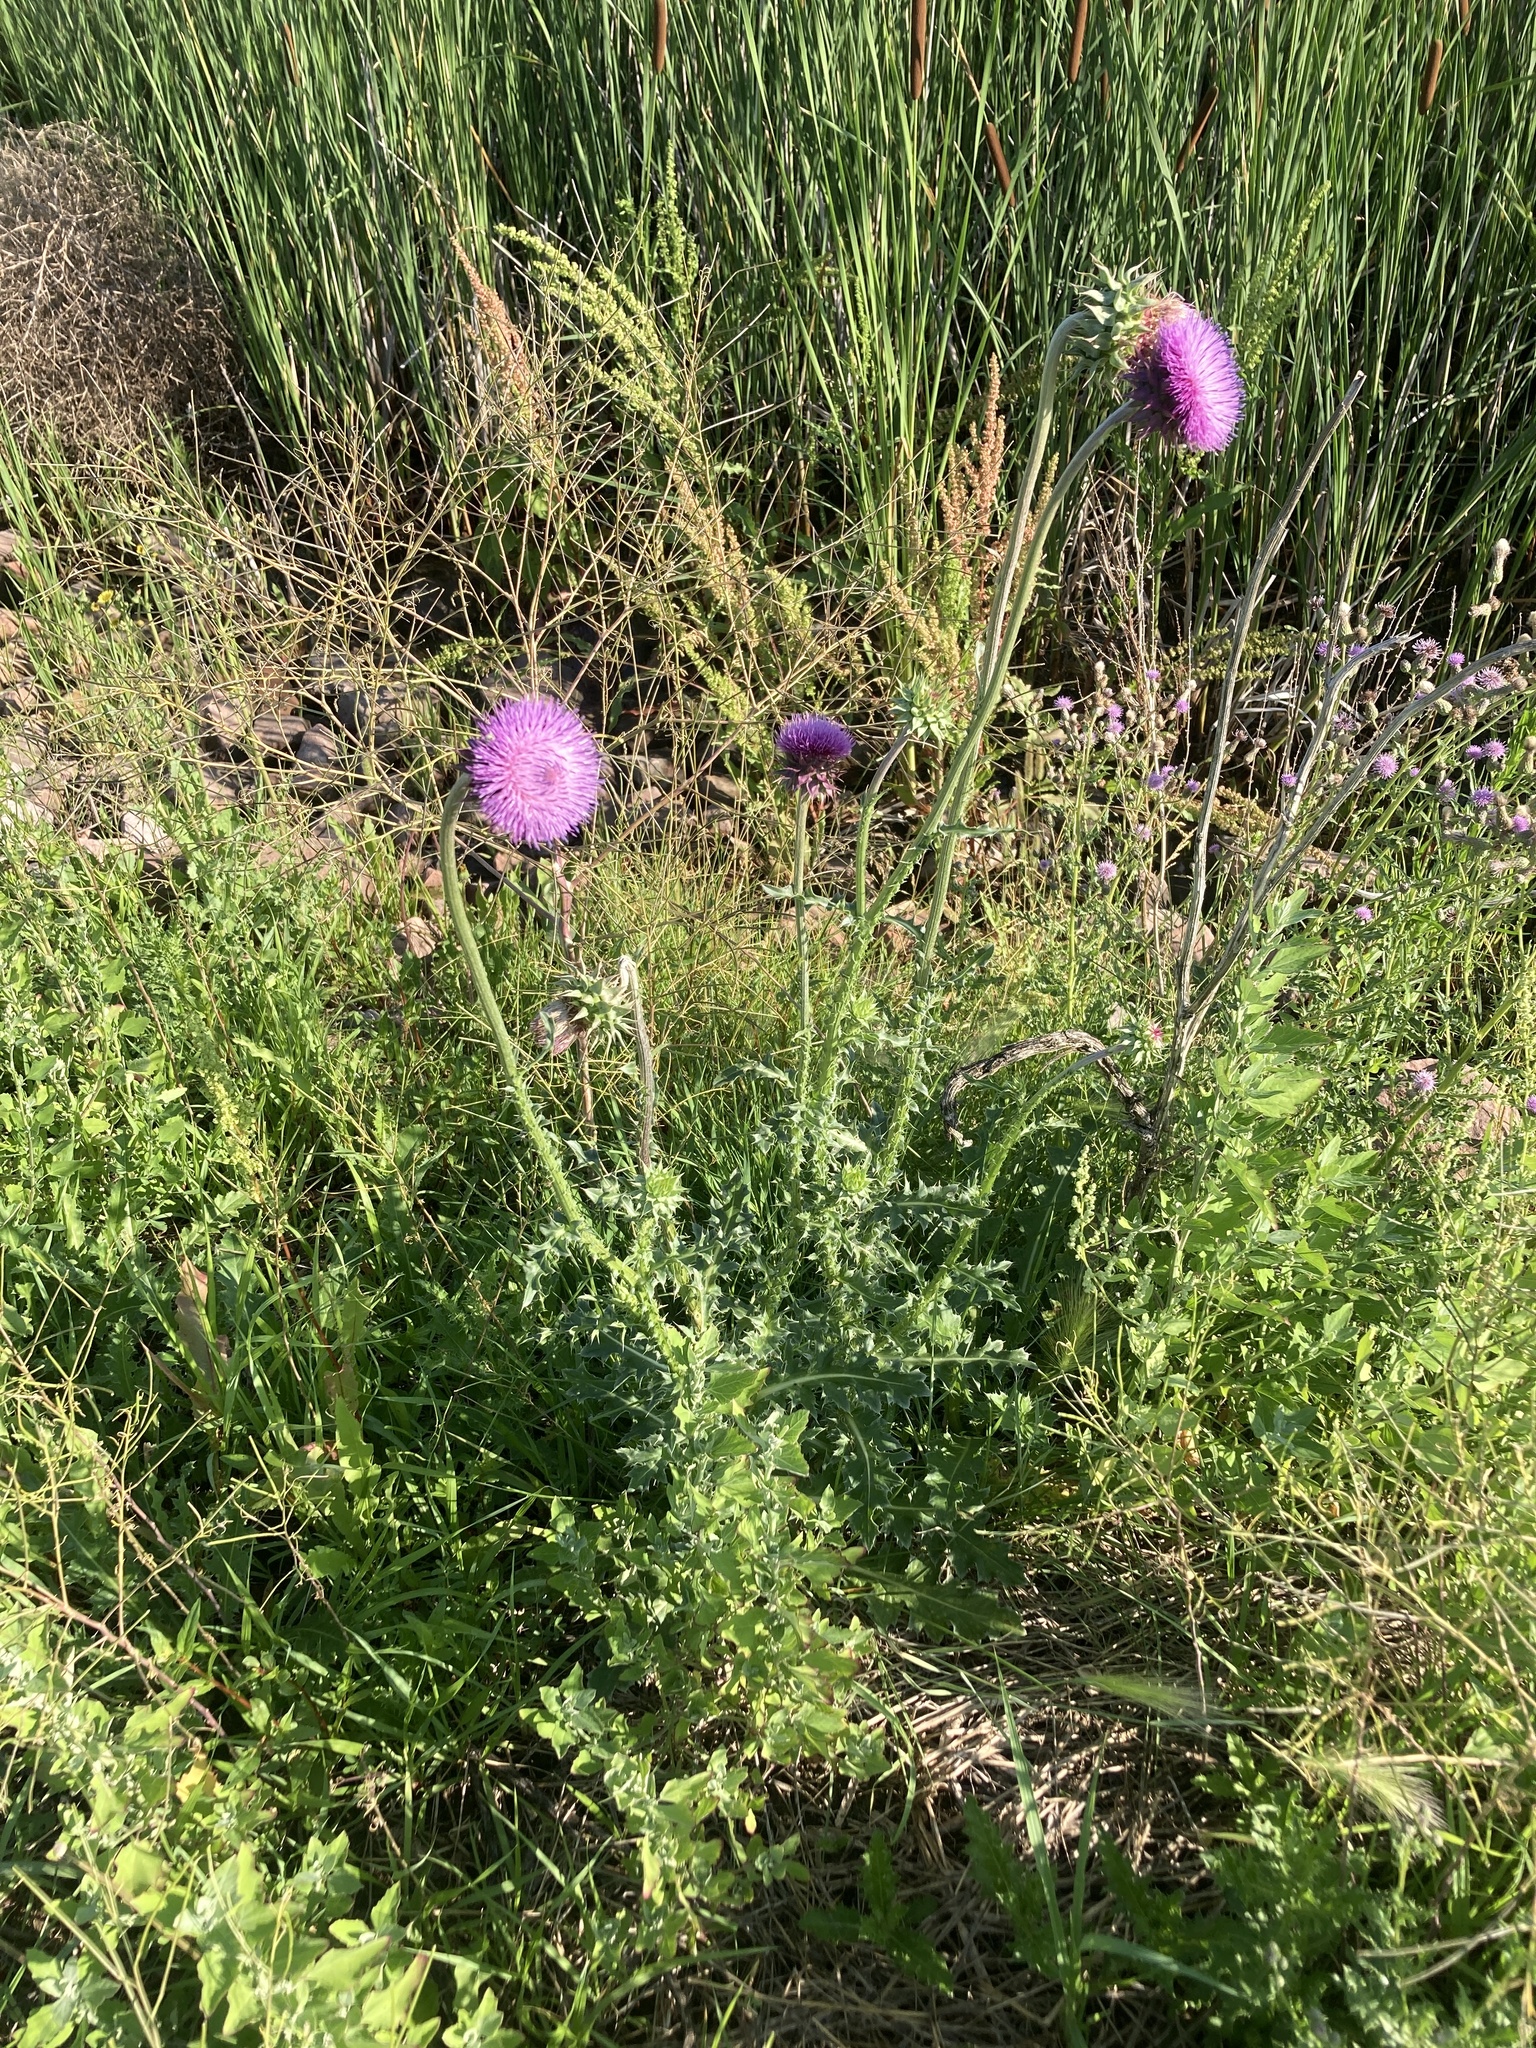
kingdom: Plantae
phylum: Tracheophyta
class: Magnoliopsida
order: Asterales
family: Asteraceae
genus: Carduus
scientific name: Carduus nutans
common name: Musk thistle
